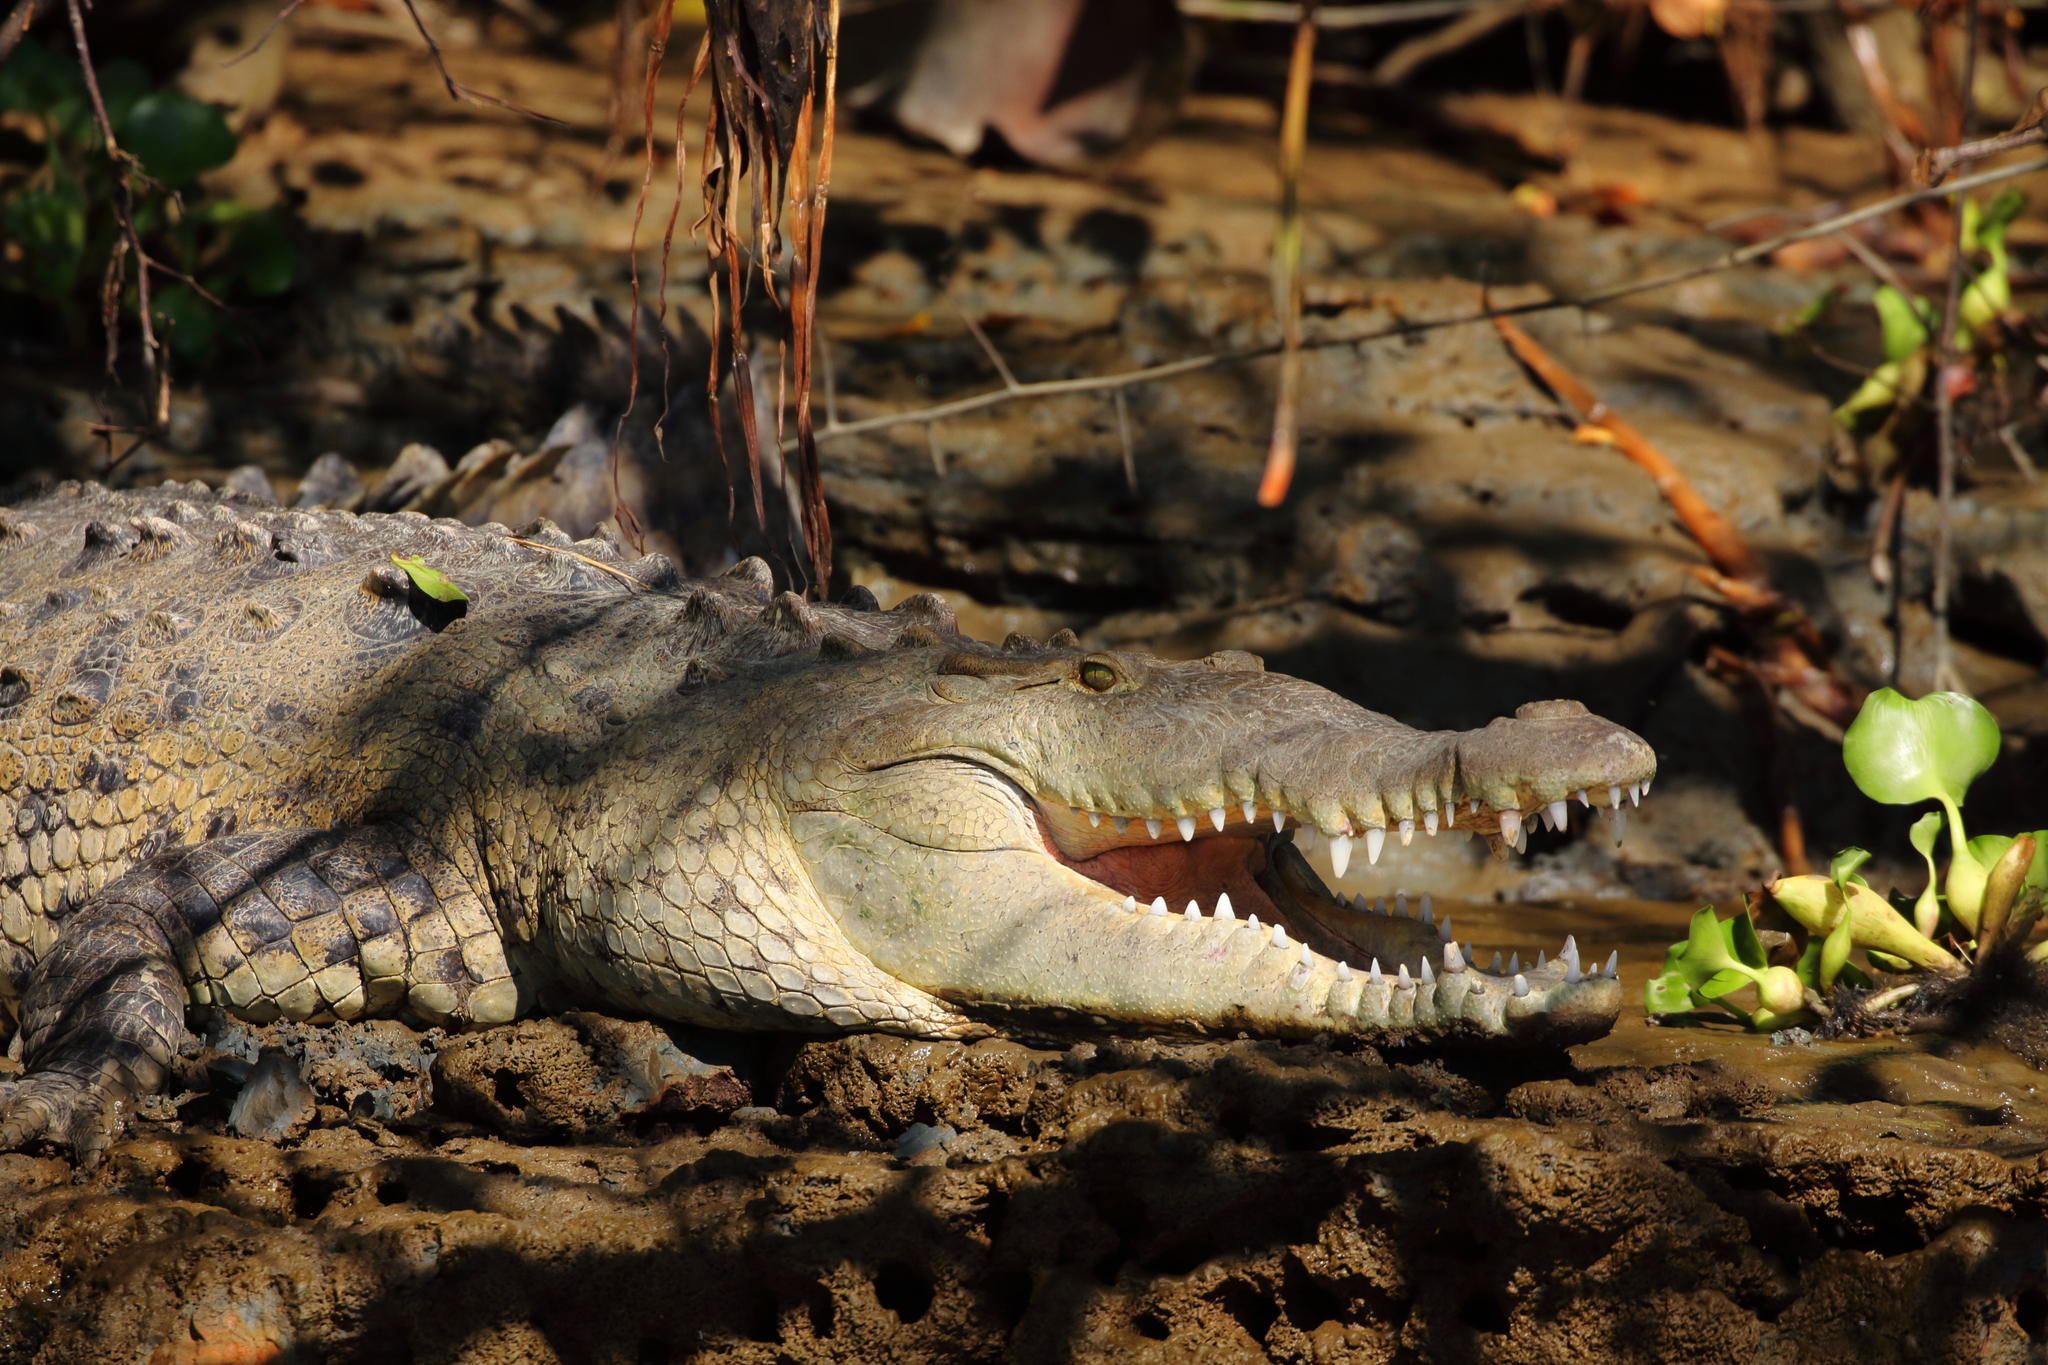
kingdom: Animalia
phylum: Chordata
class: Crocodylia
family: Crocodylidae
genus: Crocodylus
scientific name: Crocodylus acutus
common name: American crocodile
